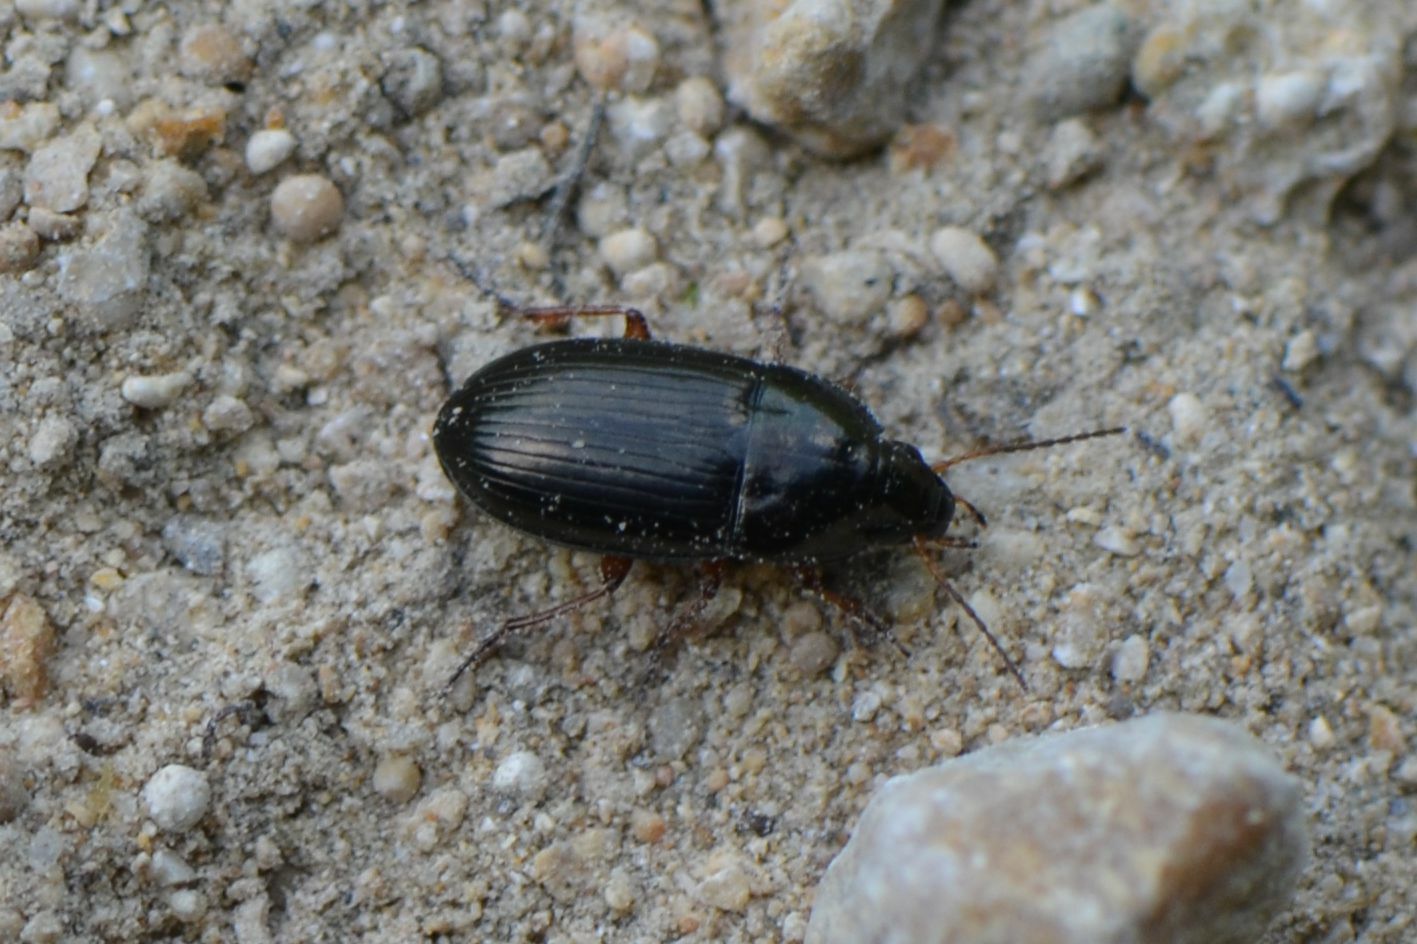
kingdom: Animalia
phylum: Arthropoda
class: Insecta
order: Coleoptera
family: Carabidae
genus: Amara
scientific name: Amara familiaris
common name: Familiar harp round beetle
